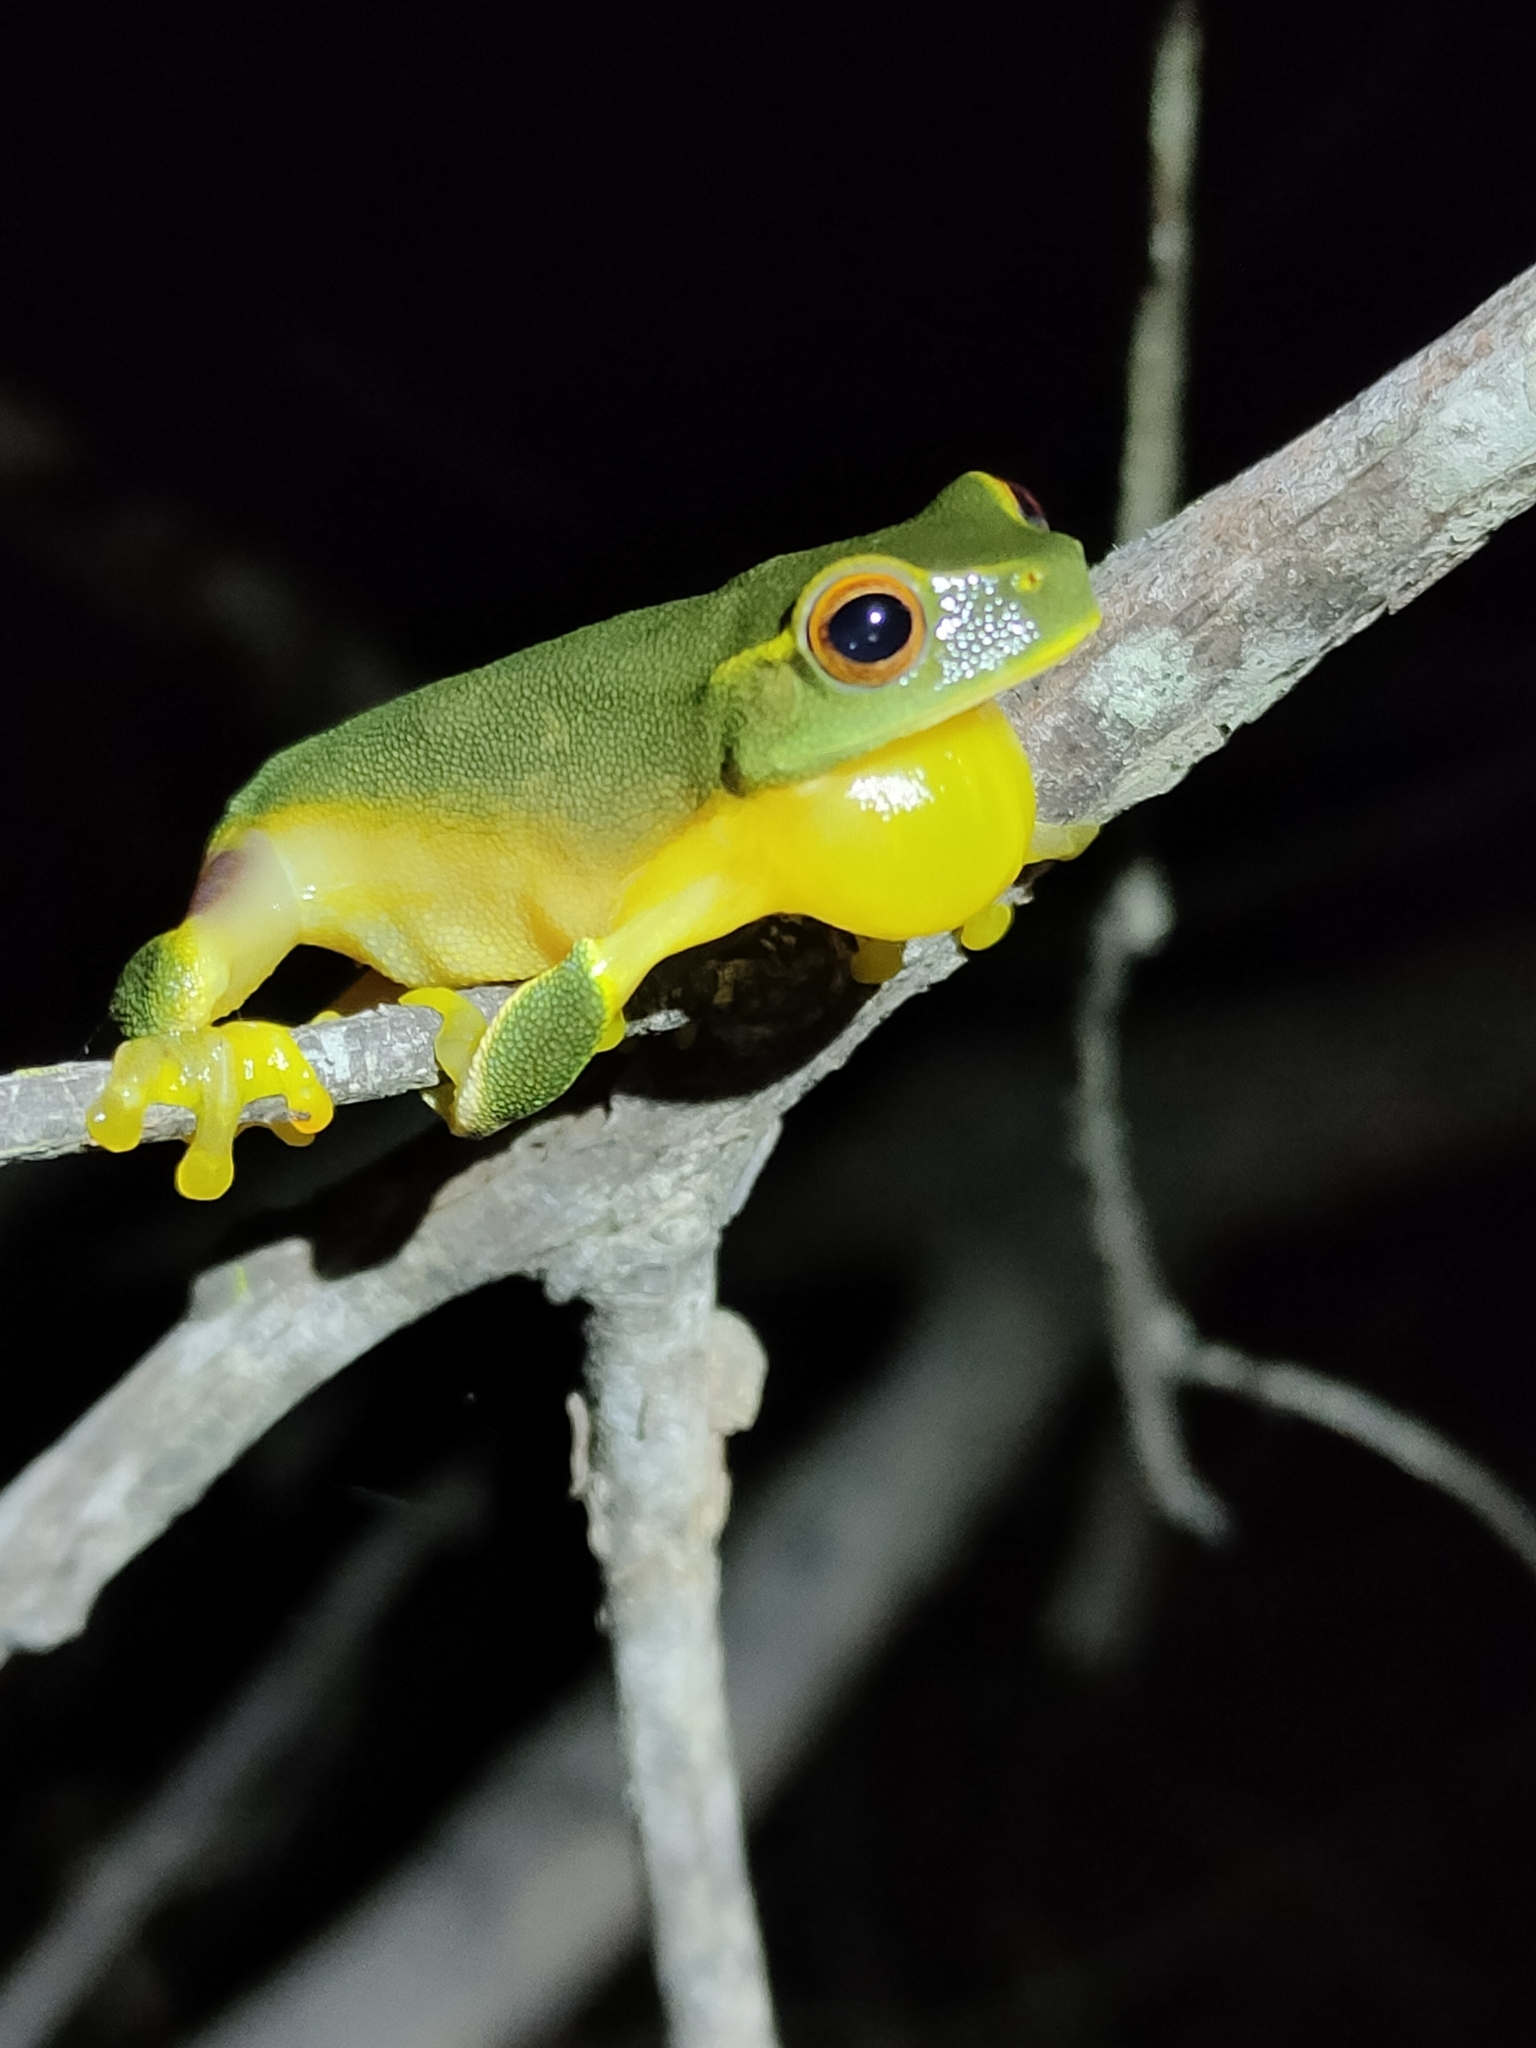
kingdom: Animalia
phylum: Chordata
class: Amphibia
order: Anura
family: Pelodryadidae
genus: Ranoidea
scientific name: Ranoidea gracilenta
